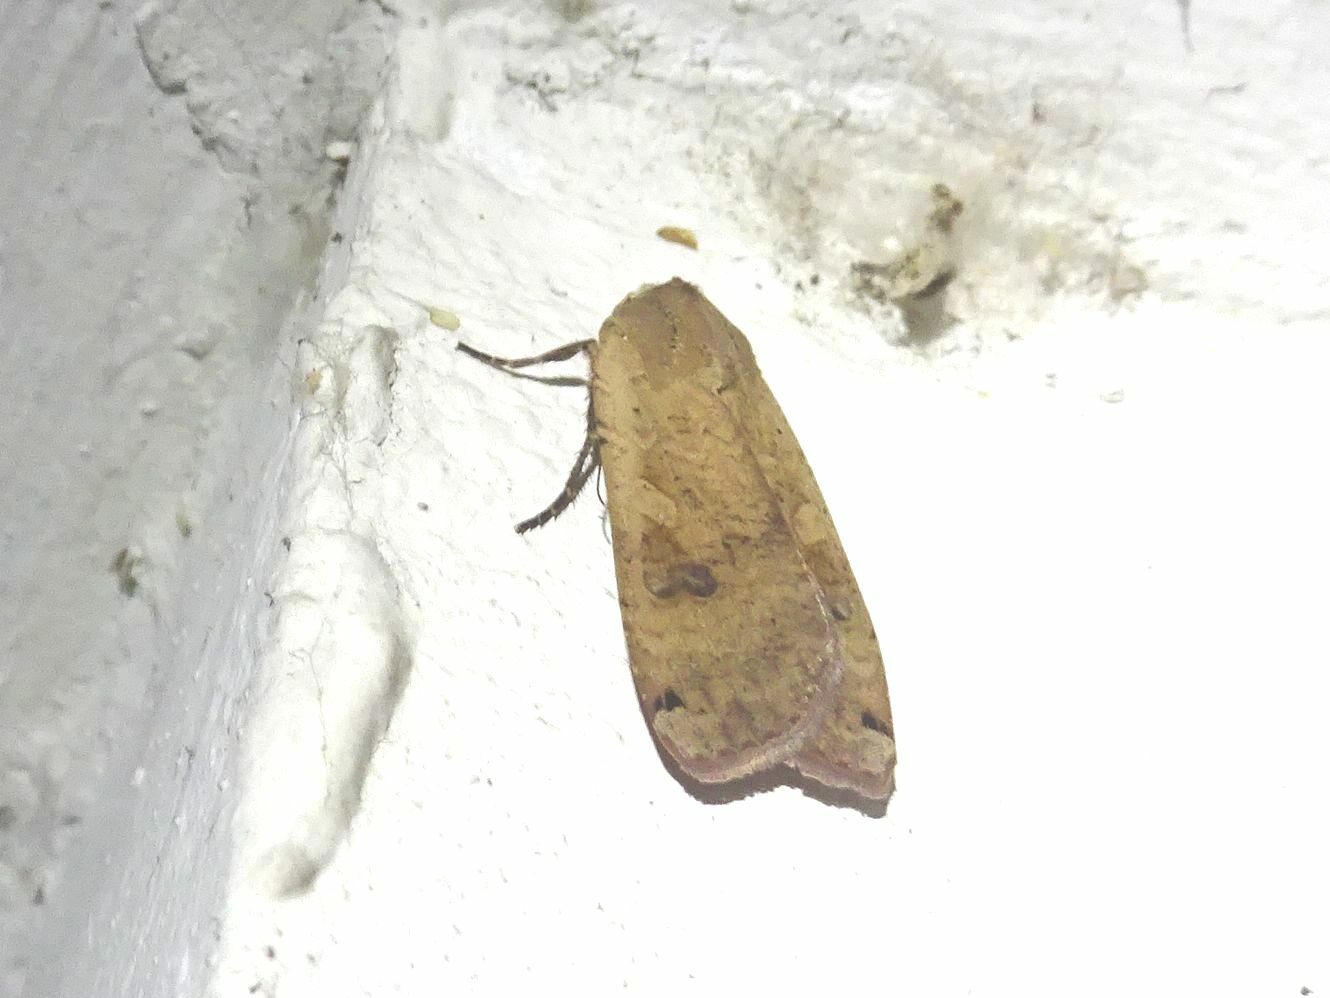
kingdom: Animalia
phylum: Arthropoda
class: Insecta
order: Lepidoptera
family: Noctuidae
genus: Noctua
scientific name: Noctua pronuba
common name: Large yellow underwing
